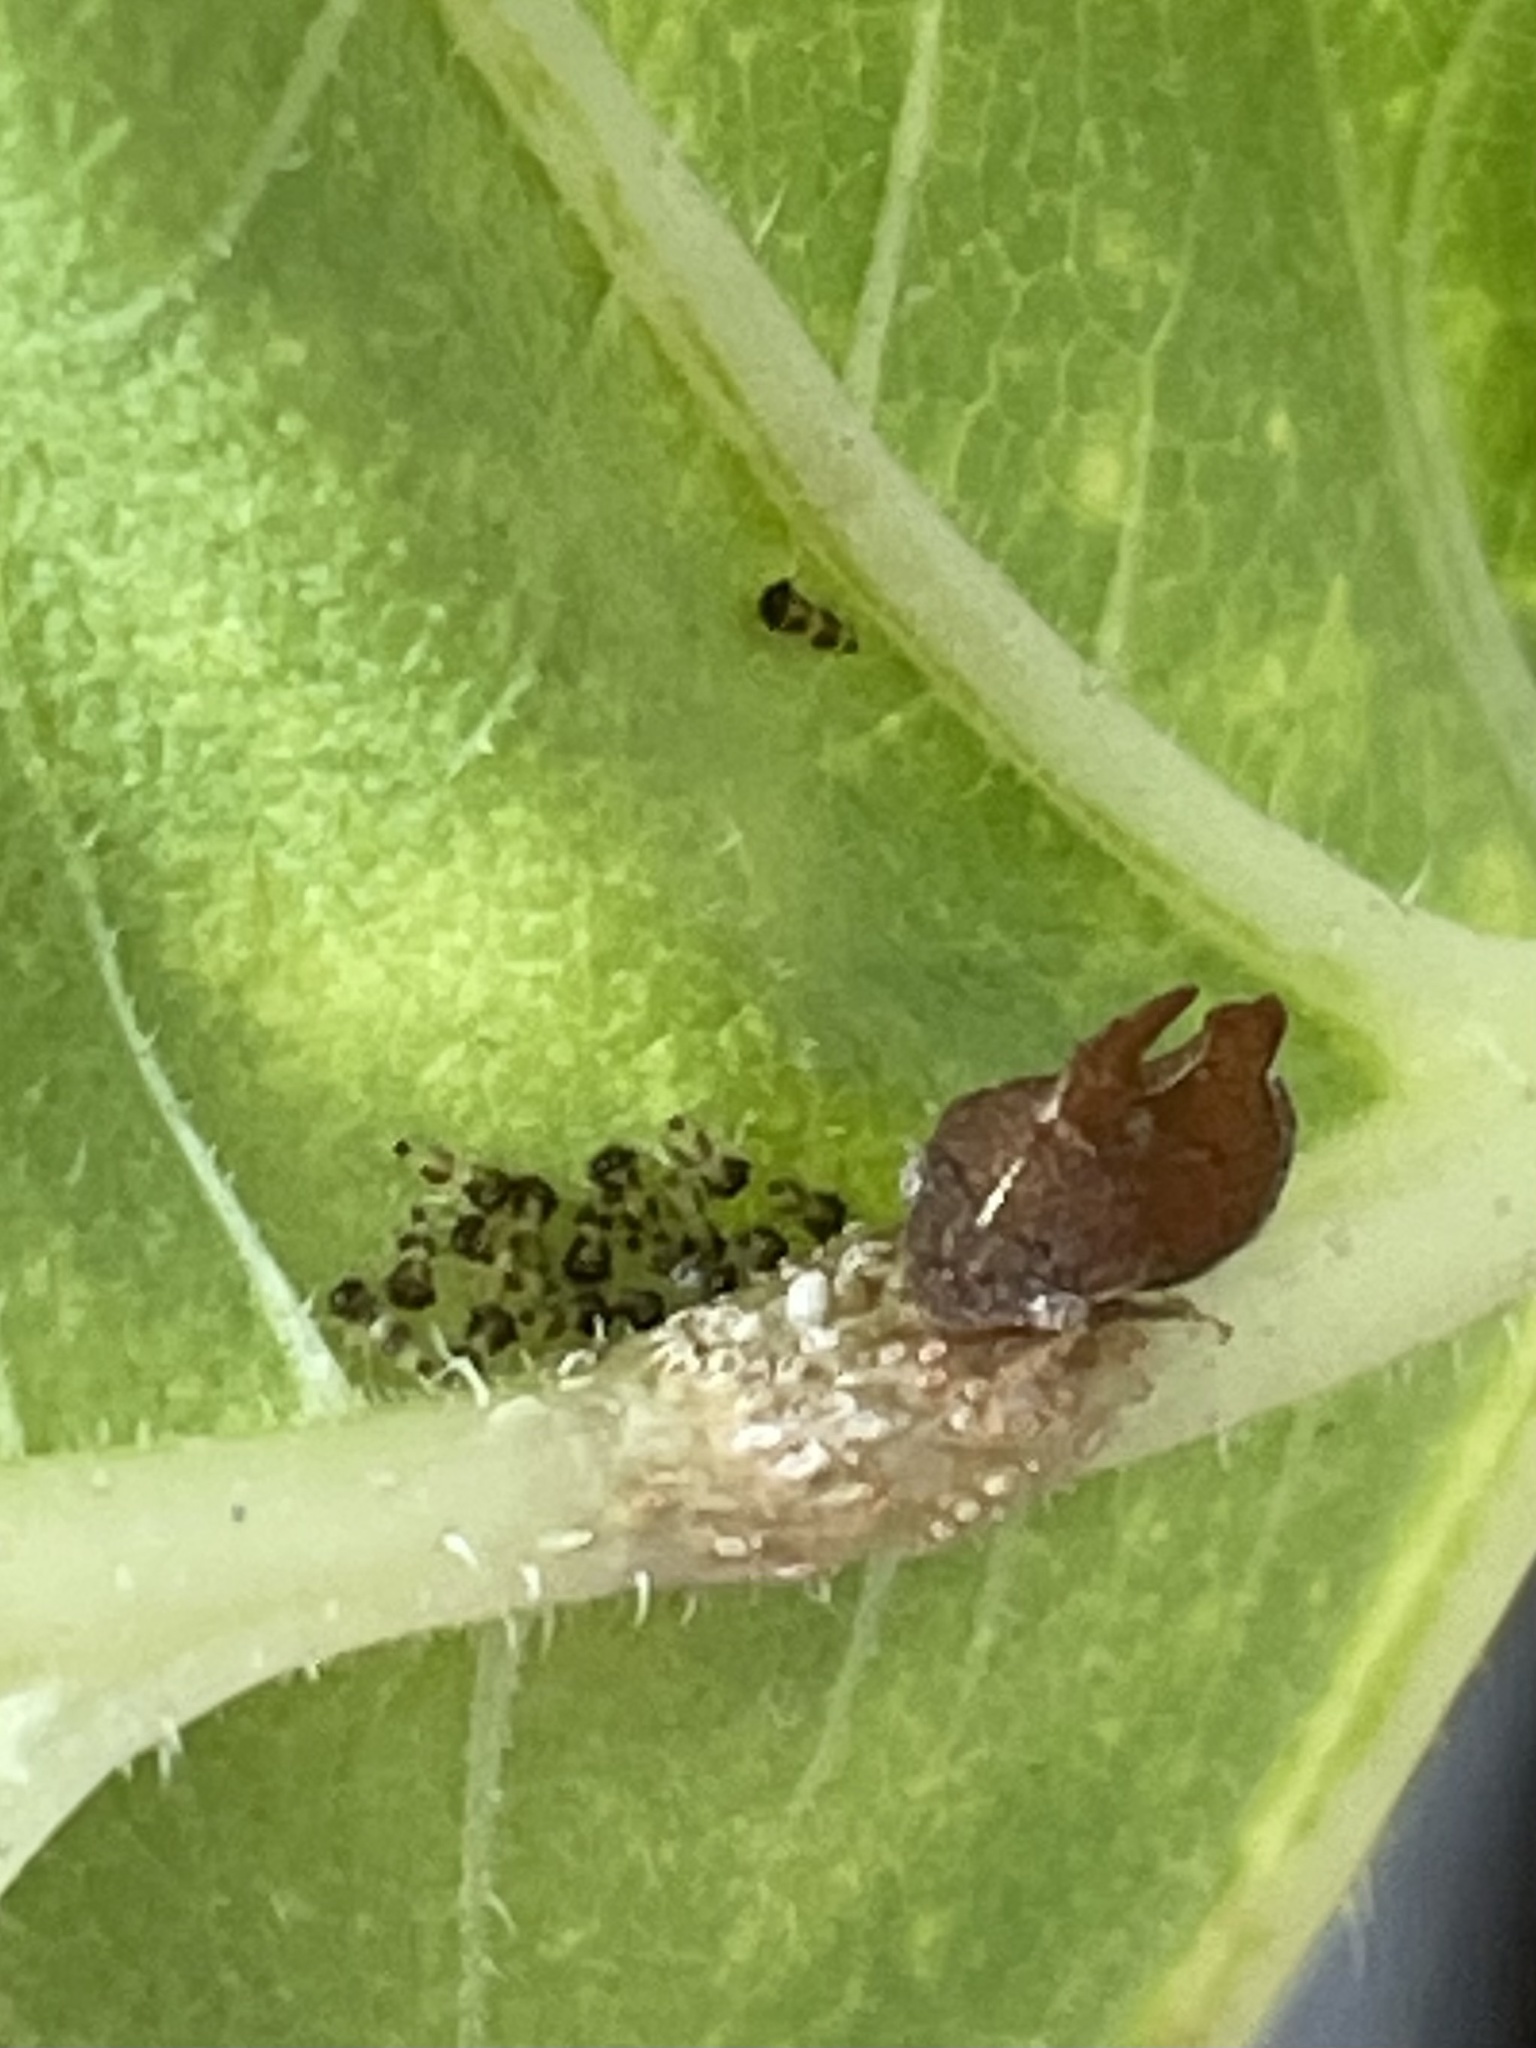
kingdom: Animalia
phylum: Arthropoda
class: Insecta
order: Hemiptera
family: Membracidae
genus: Entylia
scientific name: Entylia carinata
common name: Keeled treehopper
